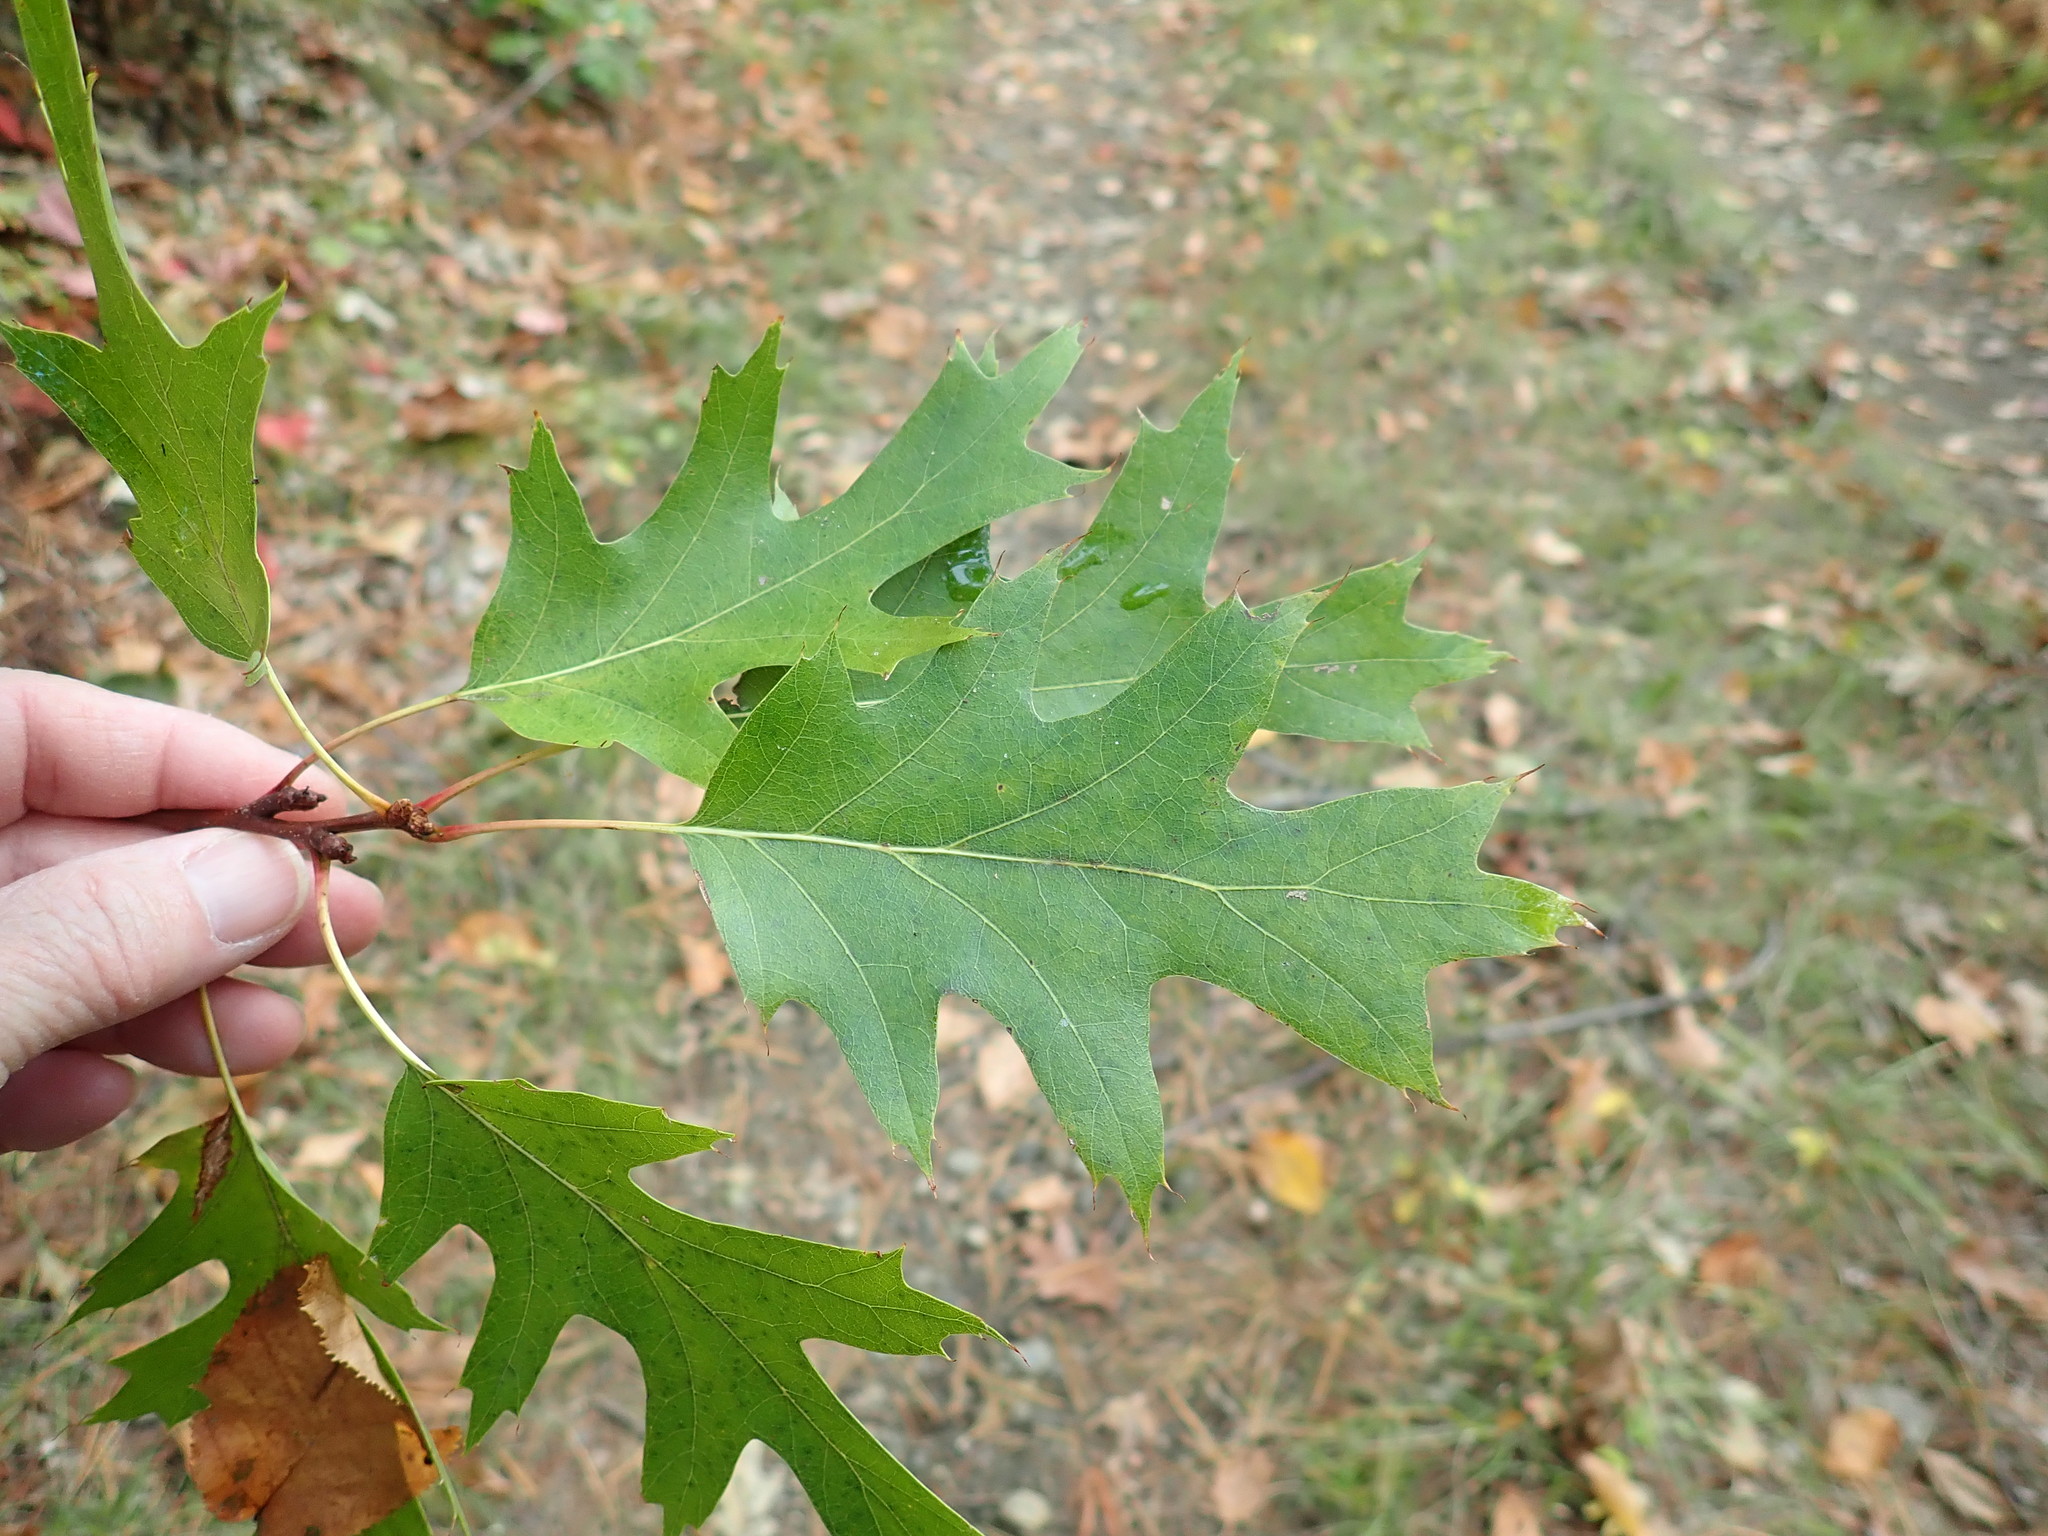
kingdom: Plantae
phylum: Tracheophyta
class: Magnoliopsida
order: Fagales
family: Fagaceae
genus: Quercus
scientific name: Quercus rubra
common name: Red oak
